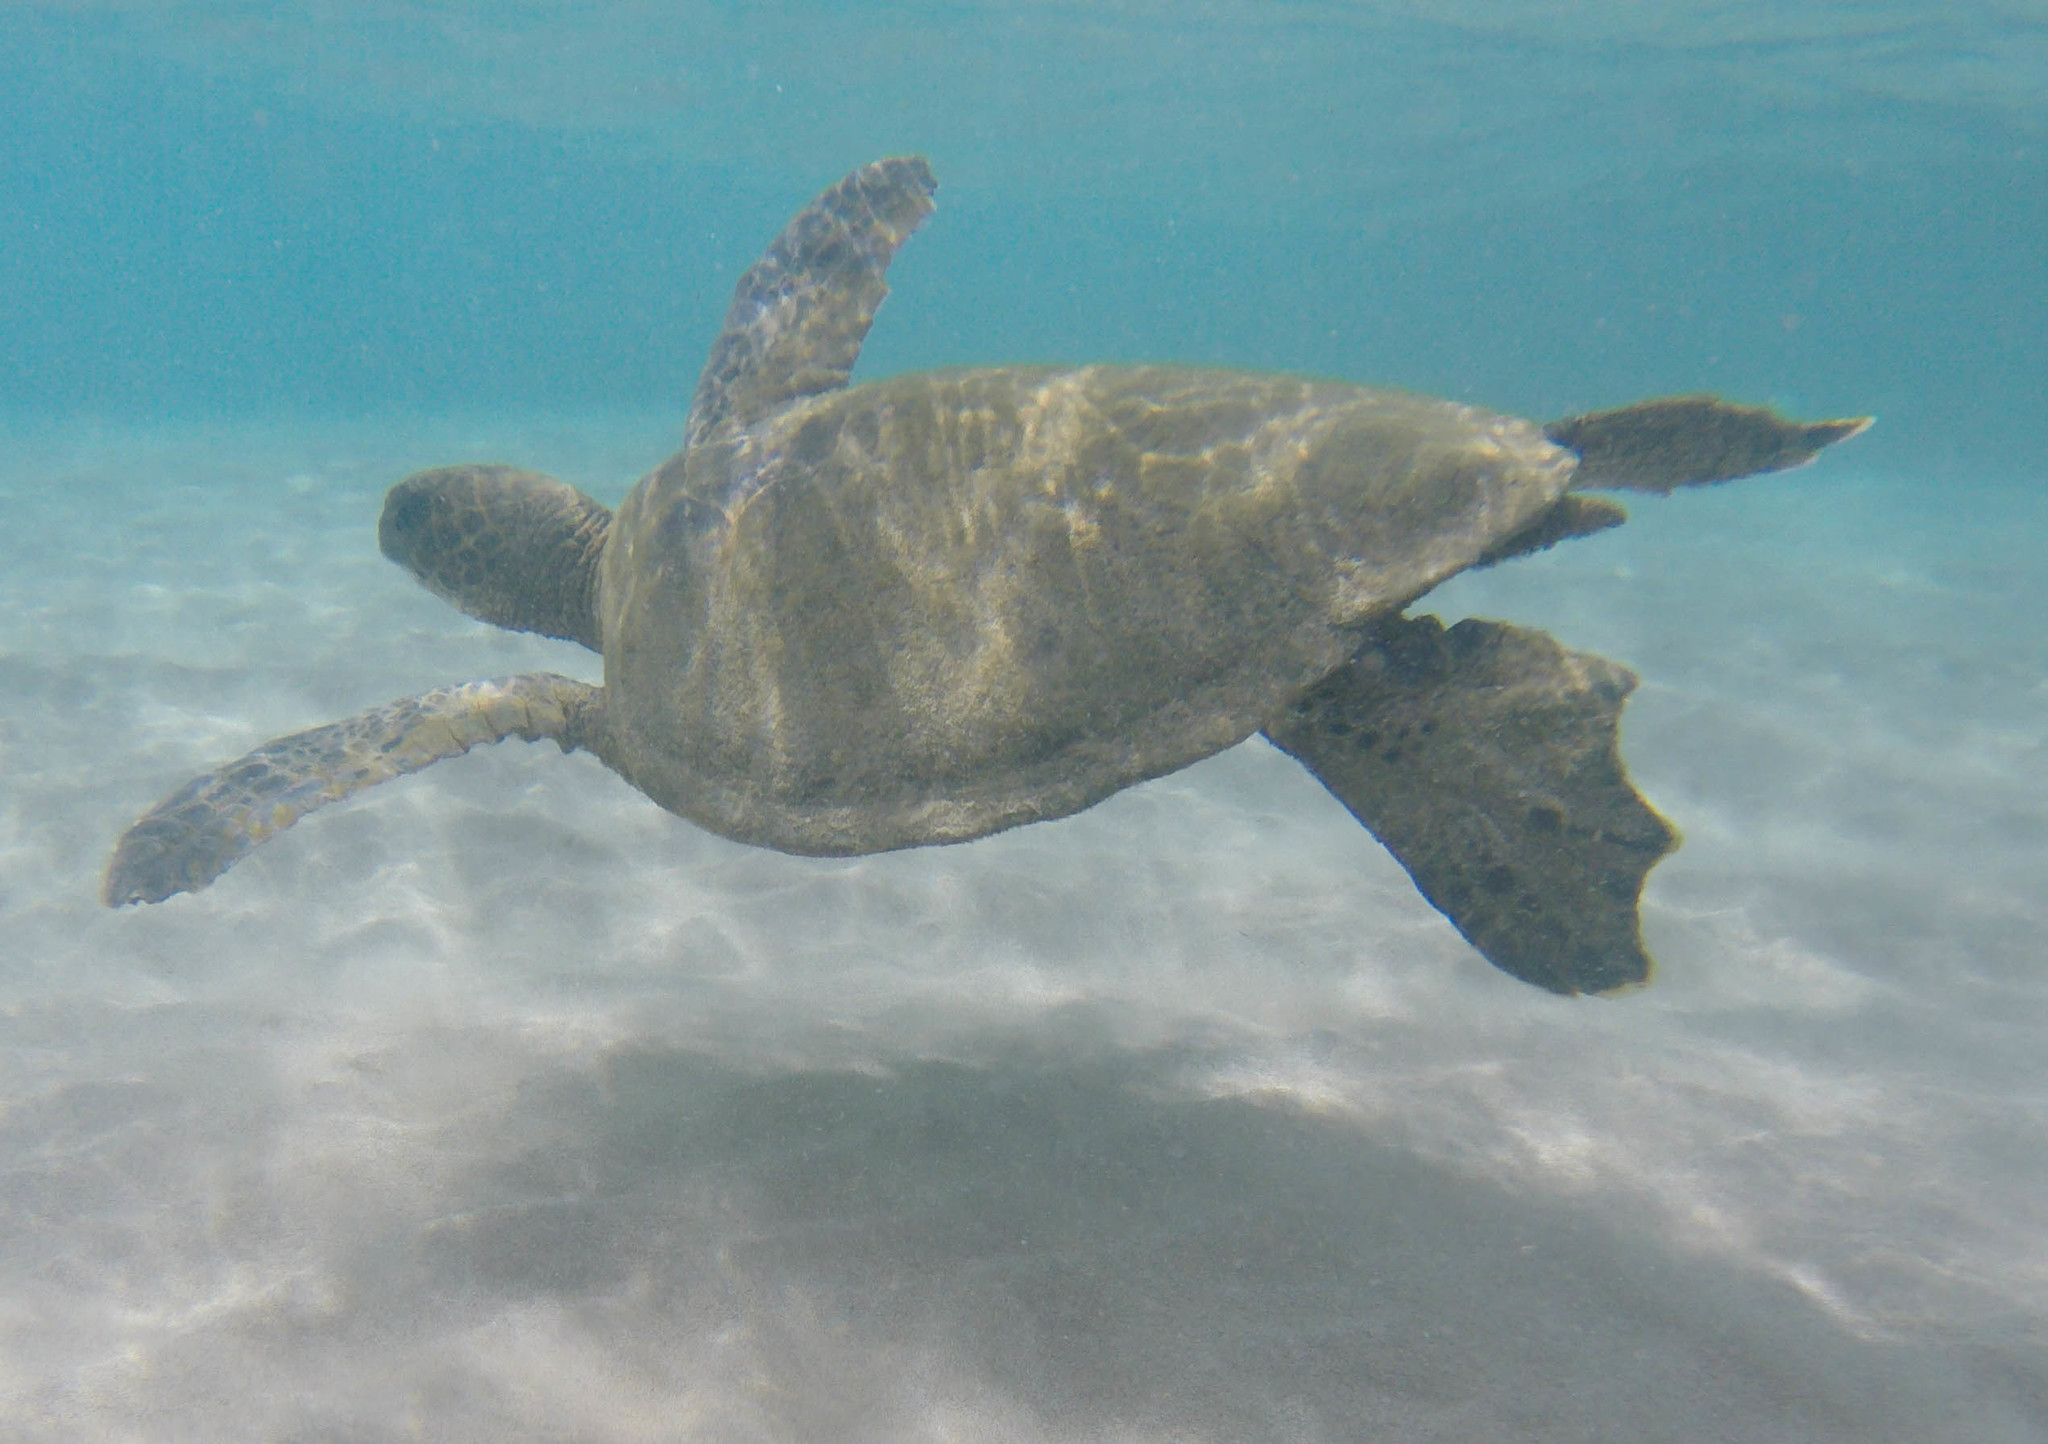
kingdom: Animalia
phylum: Chordata
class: Testudines
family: Cheloniidae
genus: Chelonia
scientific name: Chelonia mydas
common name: Green turtle
